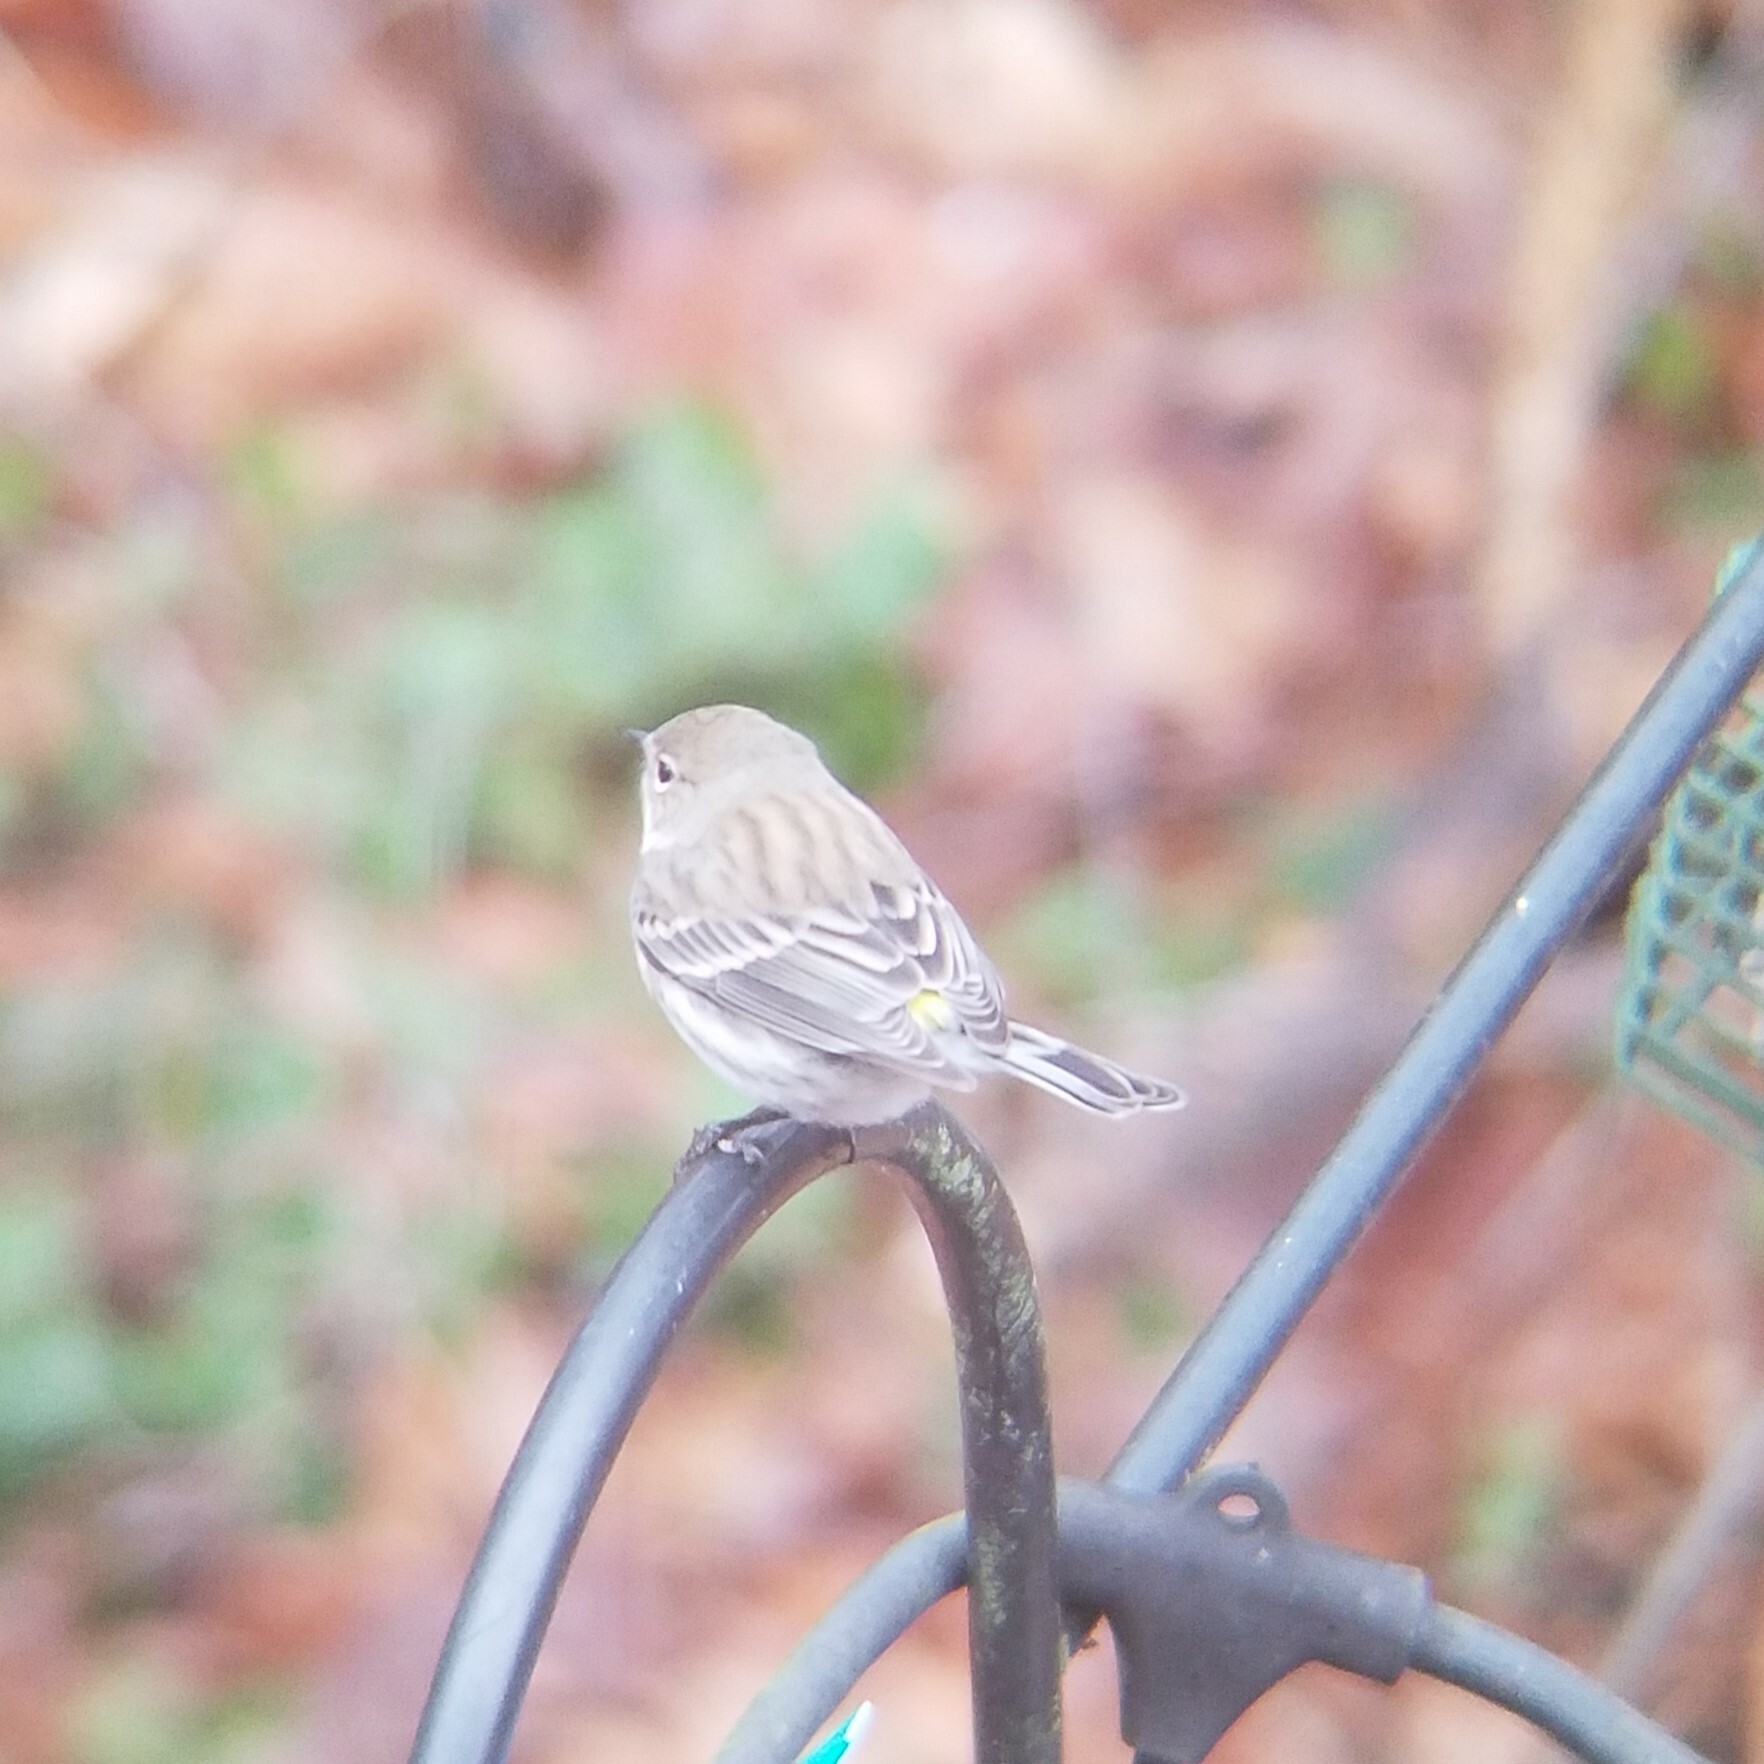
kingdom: Animalia
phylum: Chordata
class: Aves
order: Passeriformes
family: Parulidae
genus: Setophaga
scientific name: Setophaga coronata
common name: Myrtle warbler
